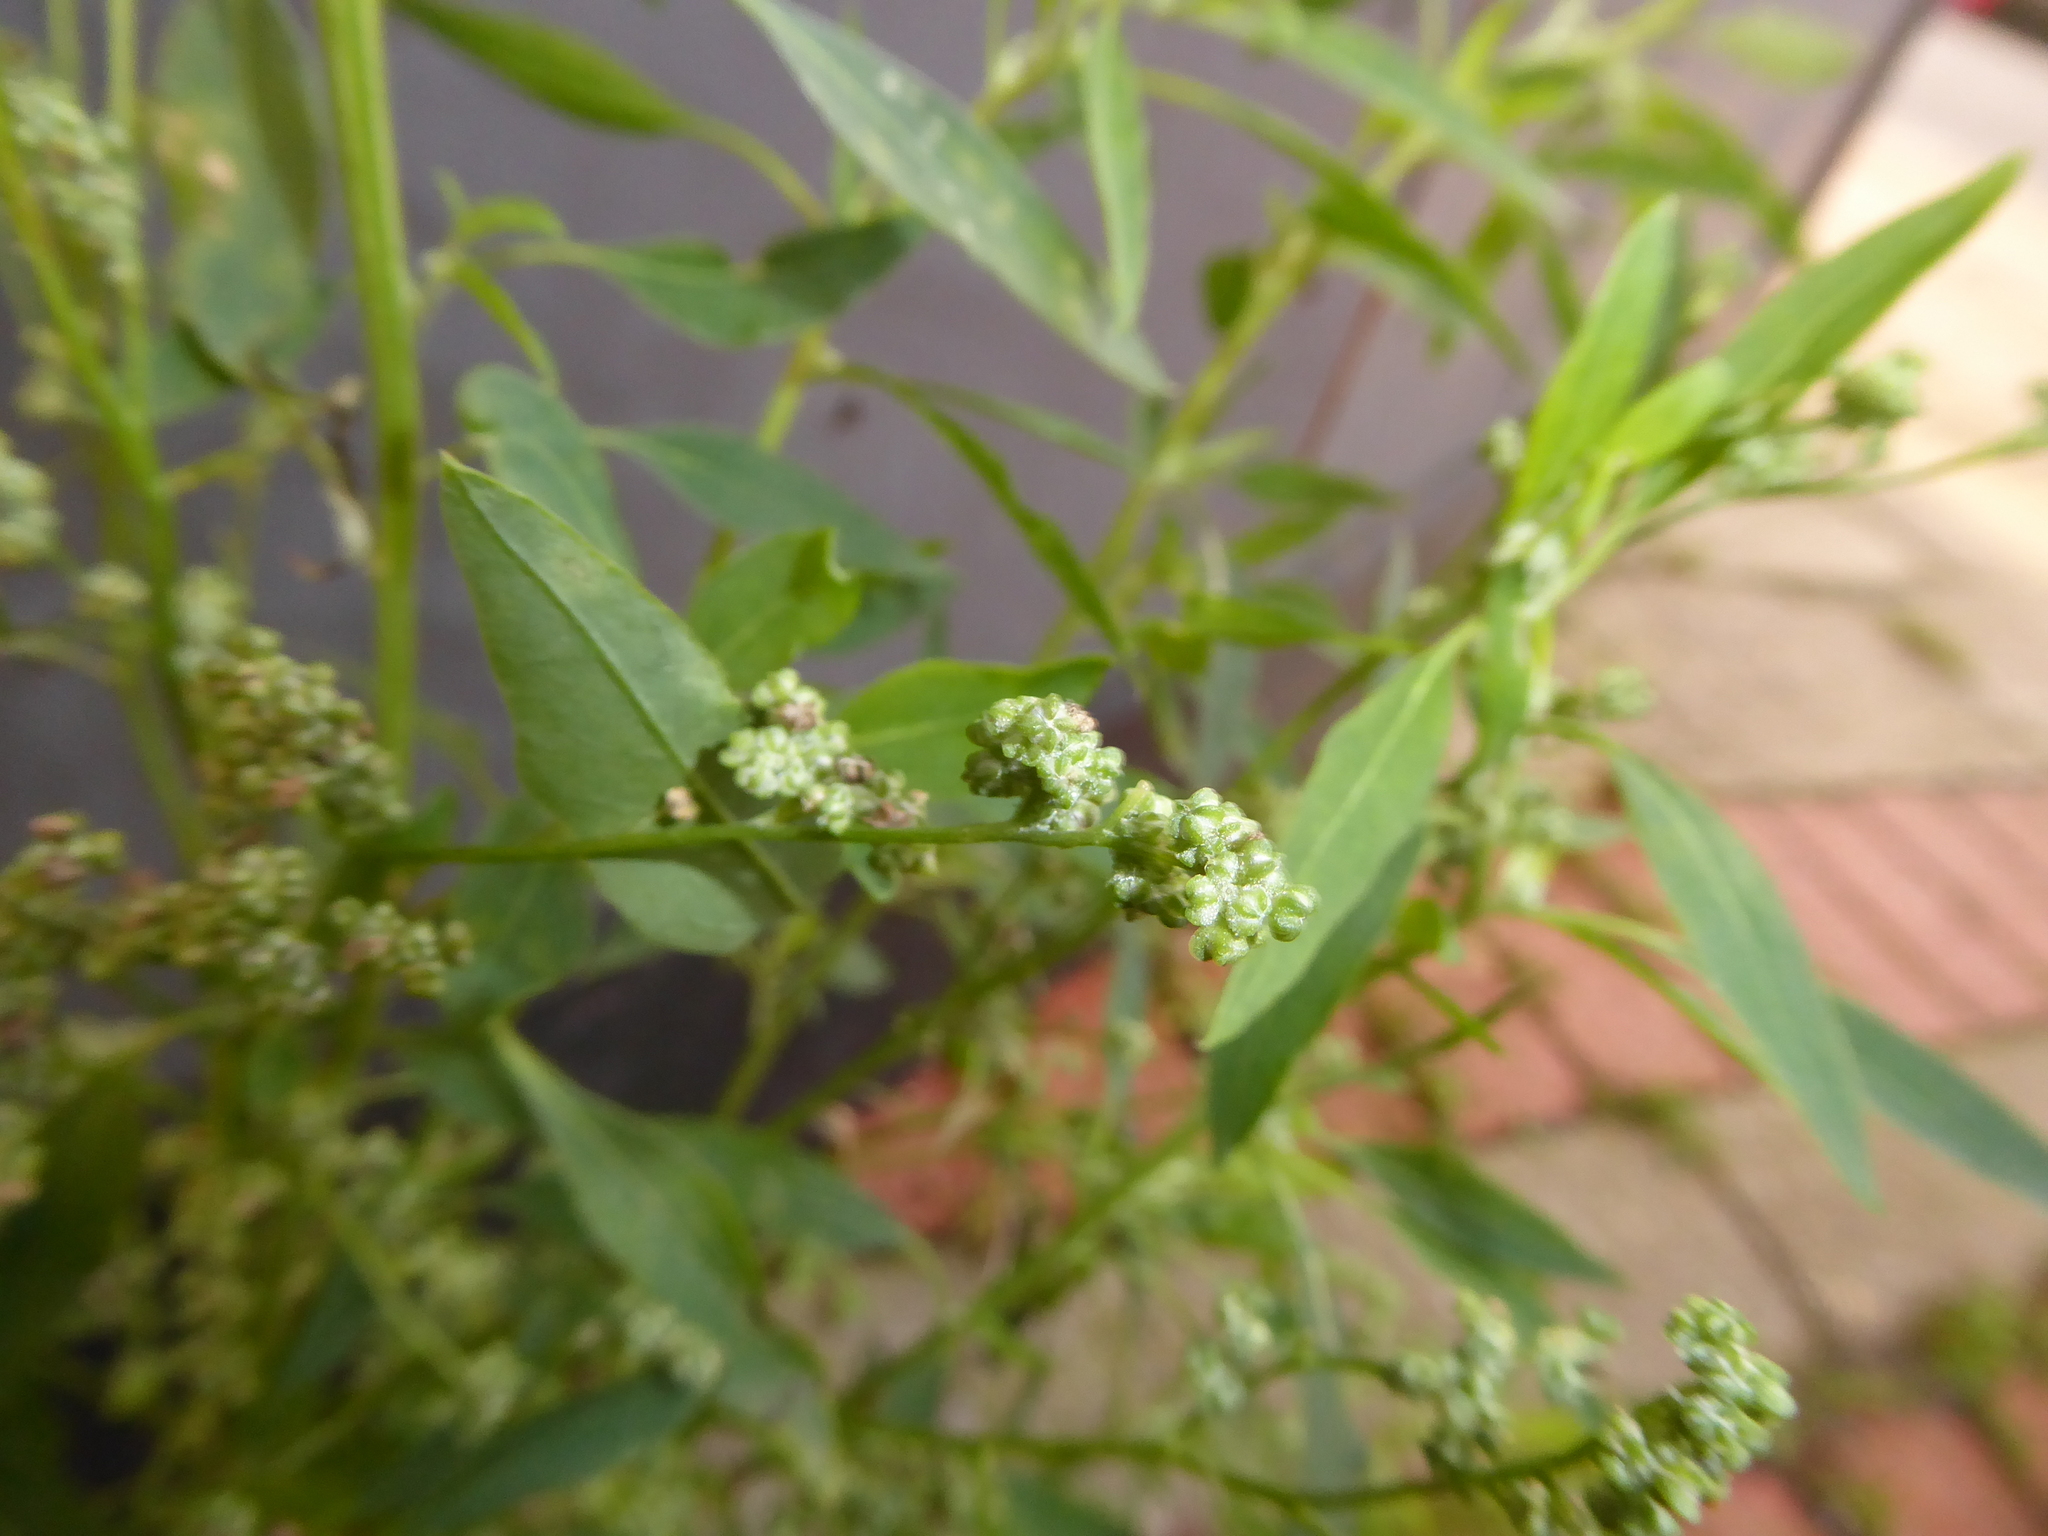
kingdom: Plantae
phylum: Tracheophyta
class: Magnoliopsida
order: Caryophyllales
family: Amaranthaceae
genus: Chenopodium
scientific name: Chenopodium album
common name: Fat-hen
